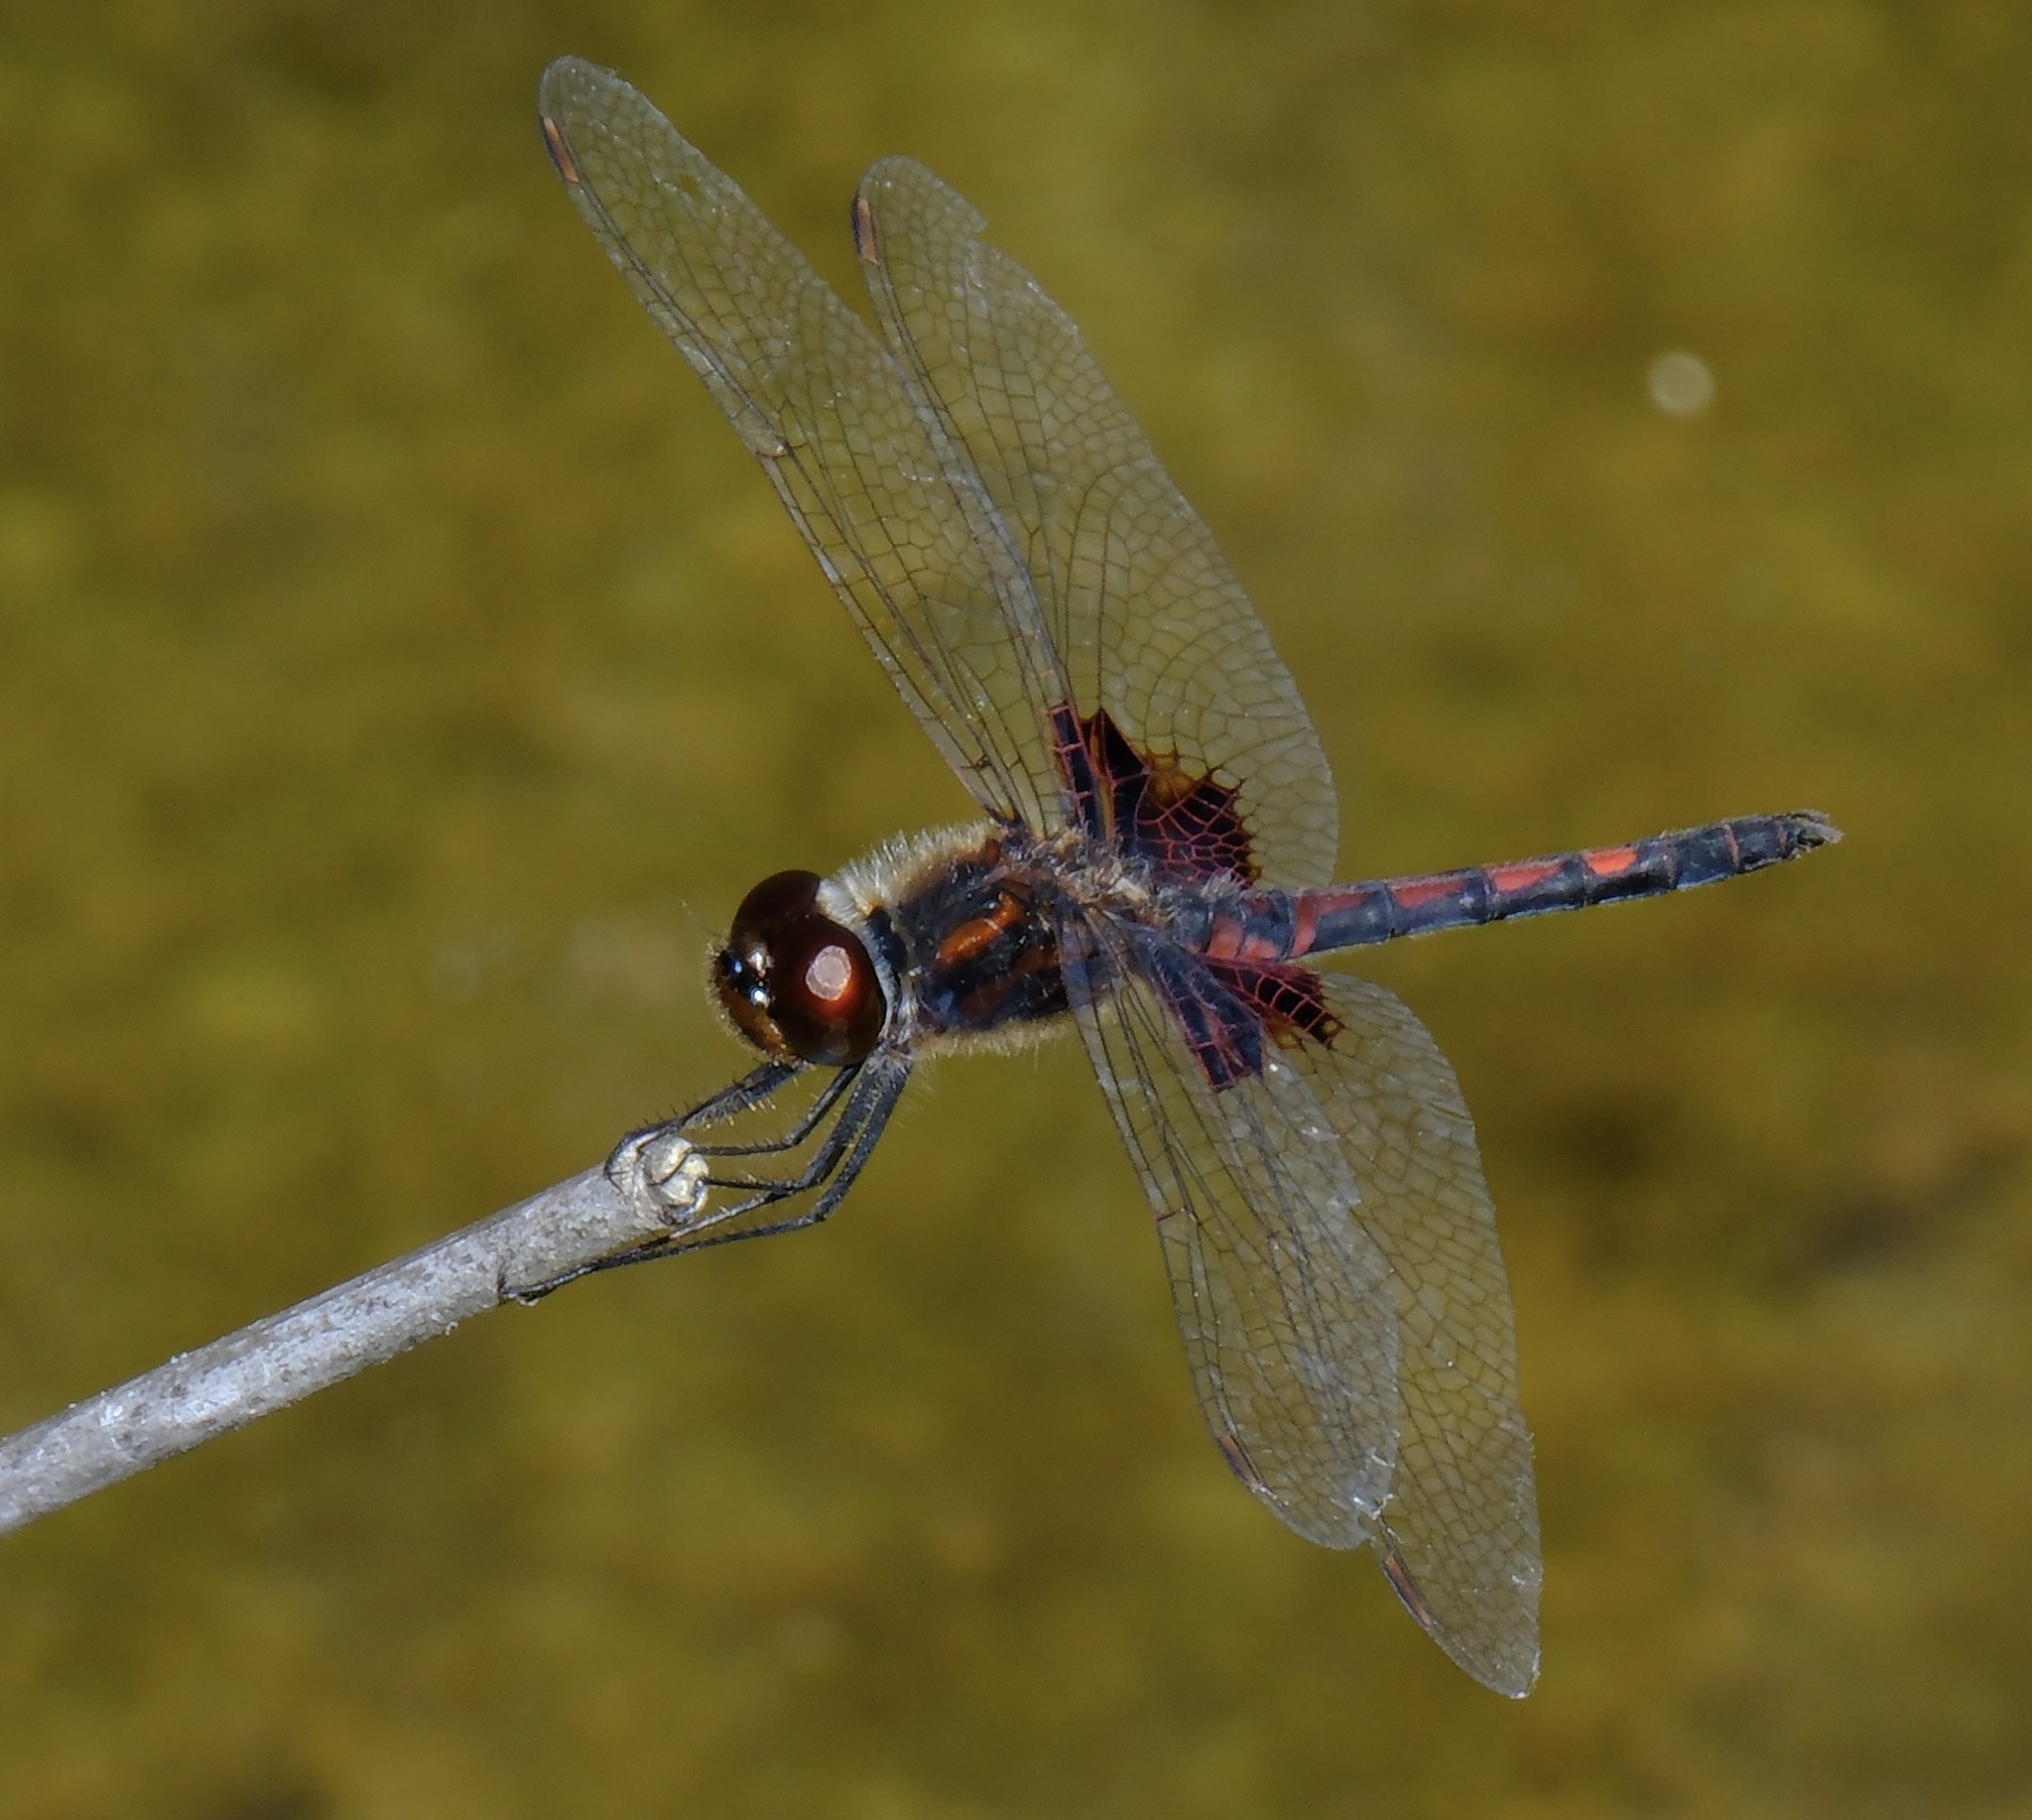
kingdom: Animalia
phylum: Arthropoda
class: Insecta
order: Odonata
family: Libellulidae
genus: Celithemis
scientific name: Celithemis ornata
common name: Ornate pennant
